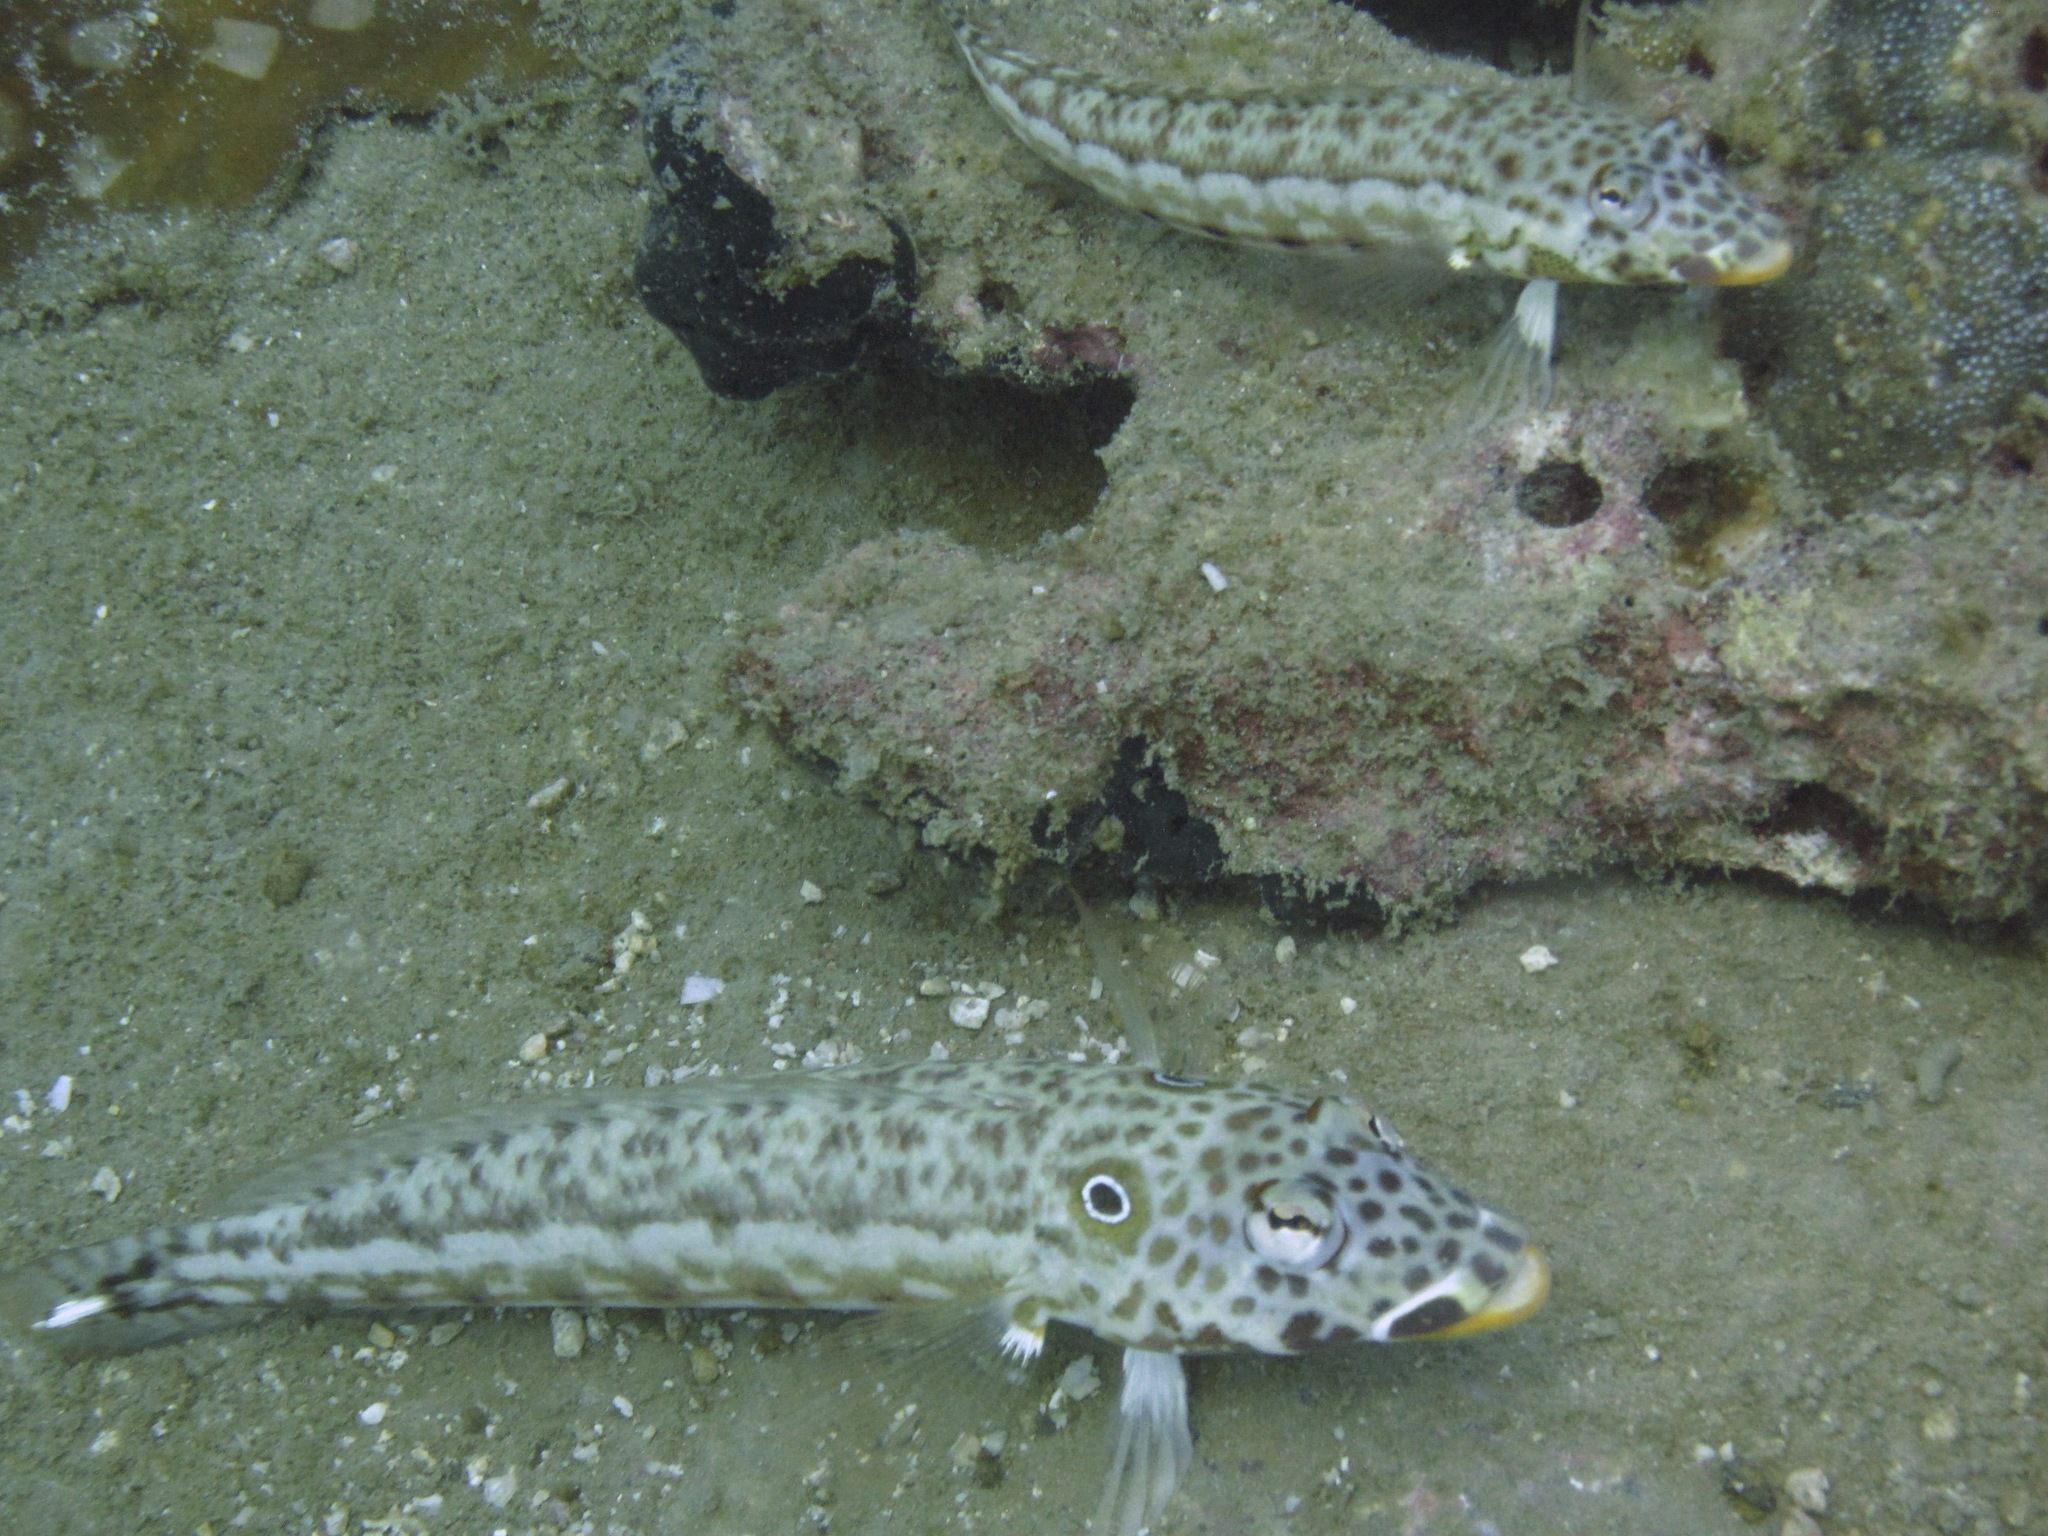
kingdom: Animalia
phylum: Chordata
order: Perciformes
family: Pinguipedidae
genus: Parapercis
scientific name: Parapercis clathrata
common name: Latticed sandperch
